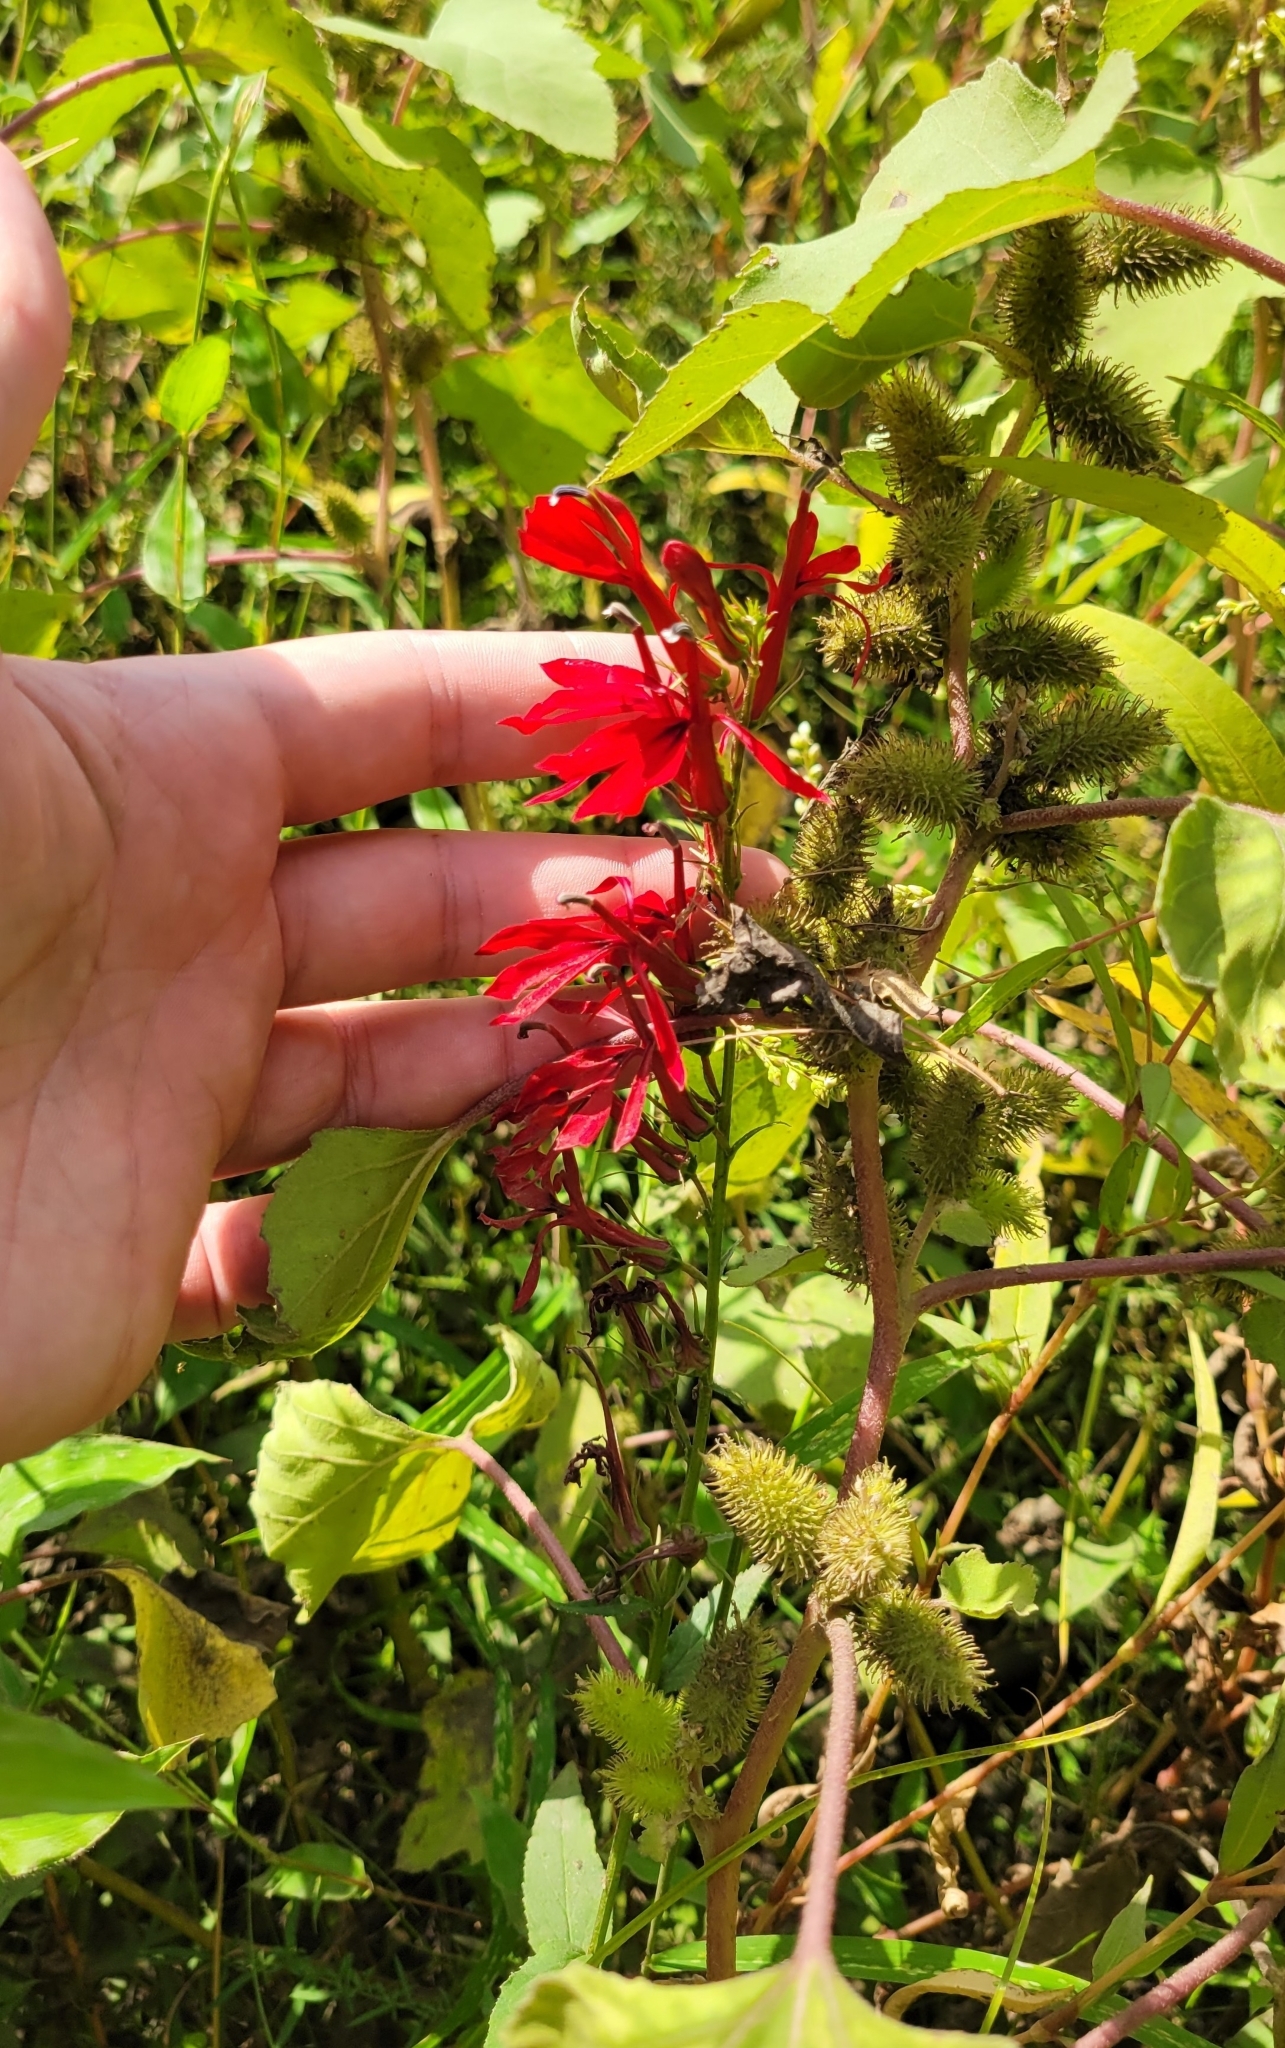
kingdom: Plantae
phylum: Tracheophyta
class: Magnoliopsida
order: Asterales
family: Campanulaceae
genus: Lobelia
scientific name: Lobelia cardinalis
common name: Cardinal flower
